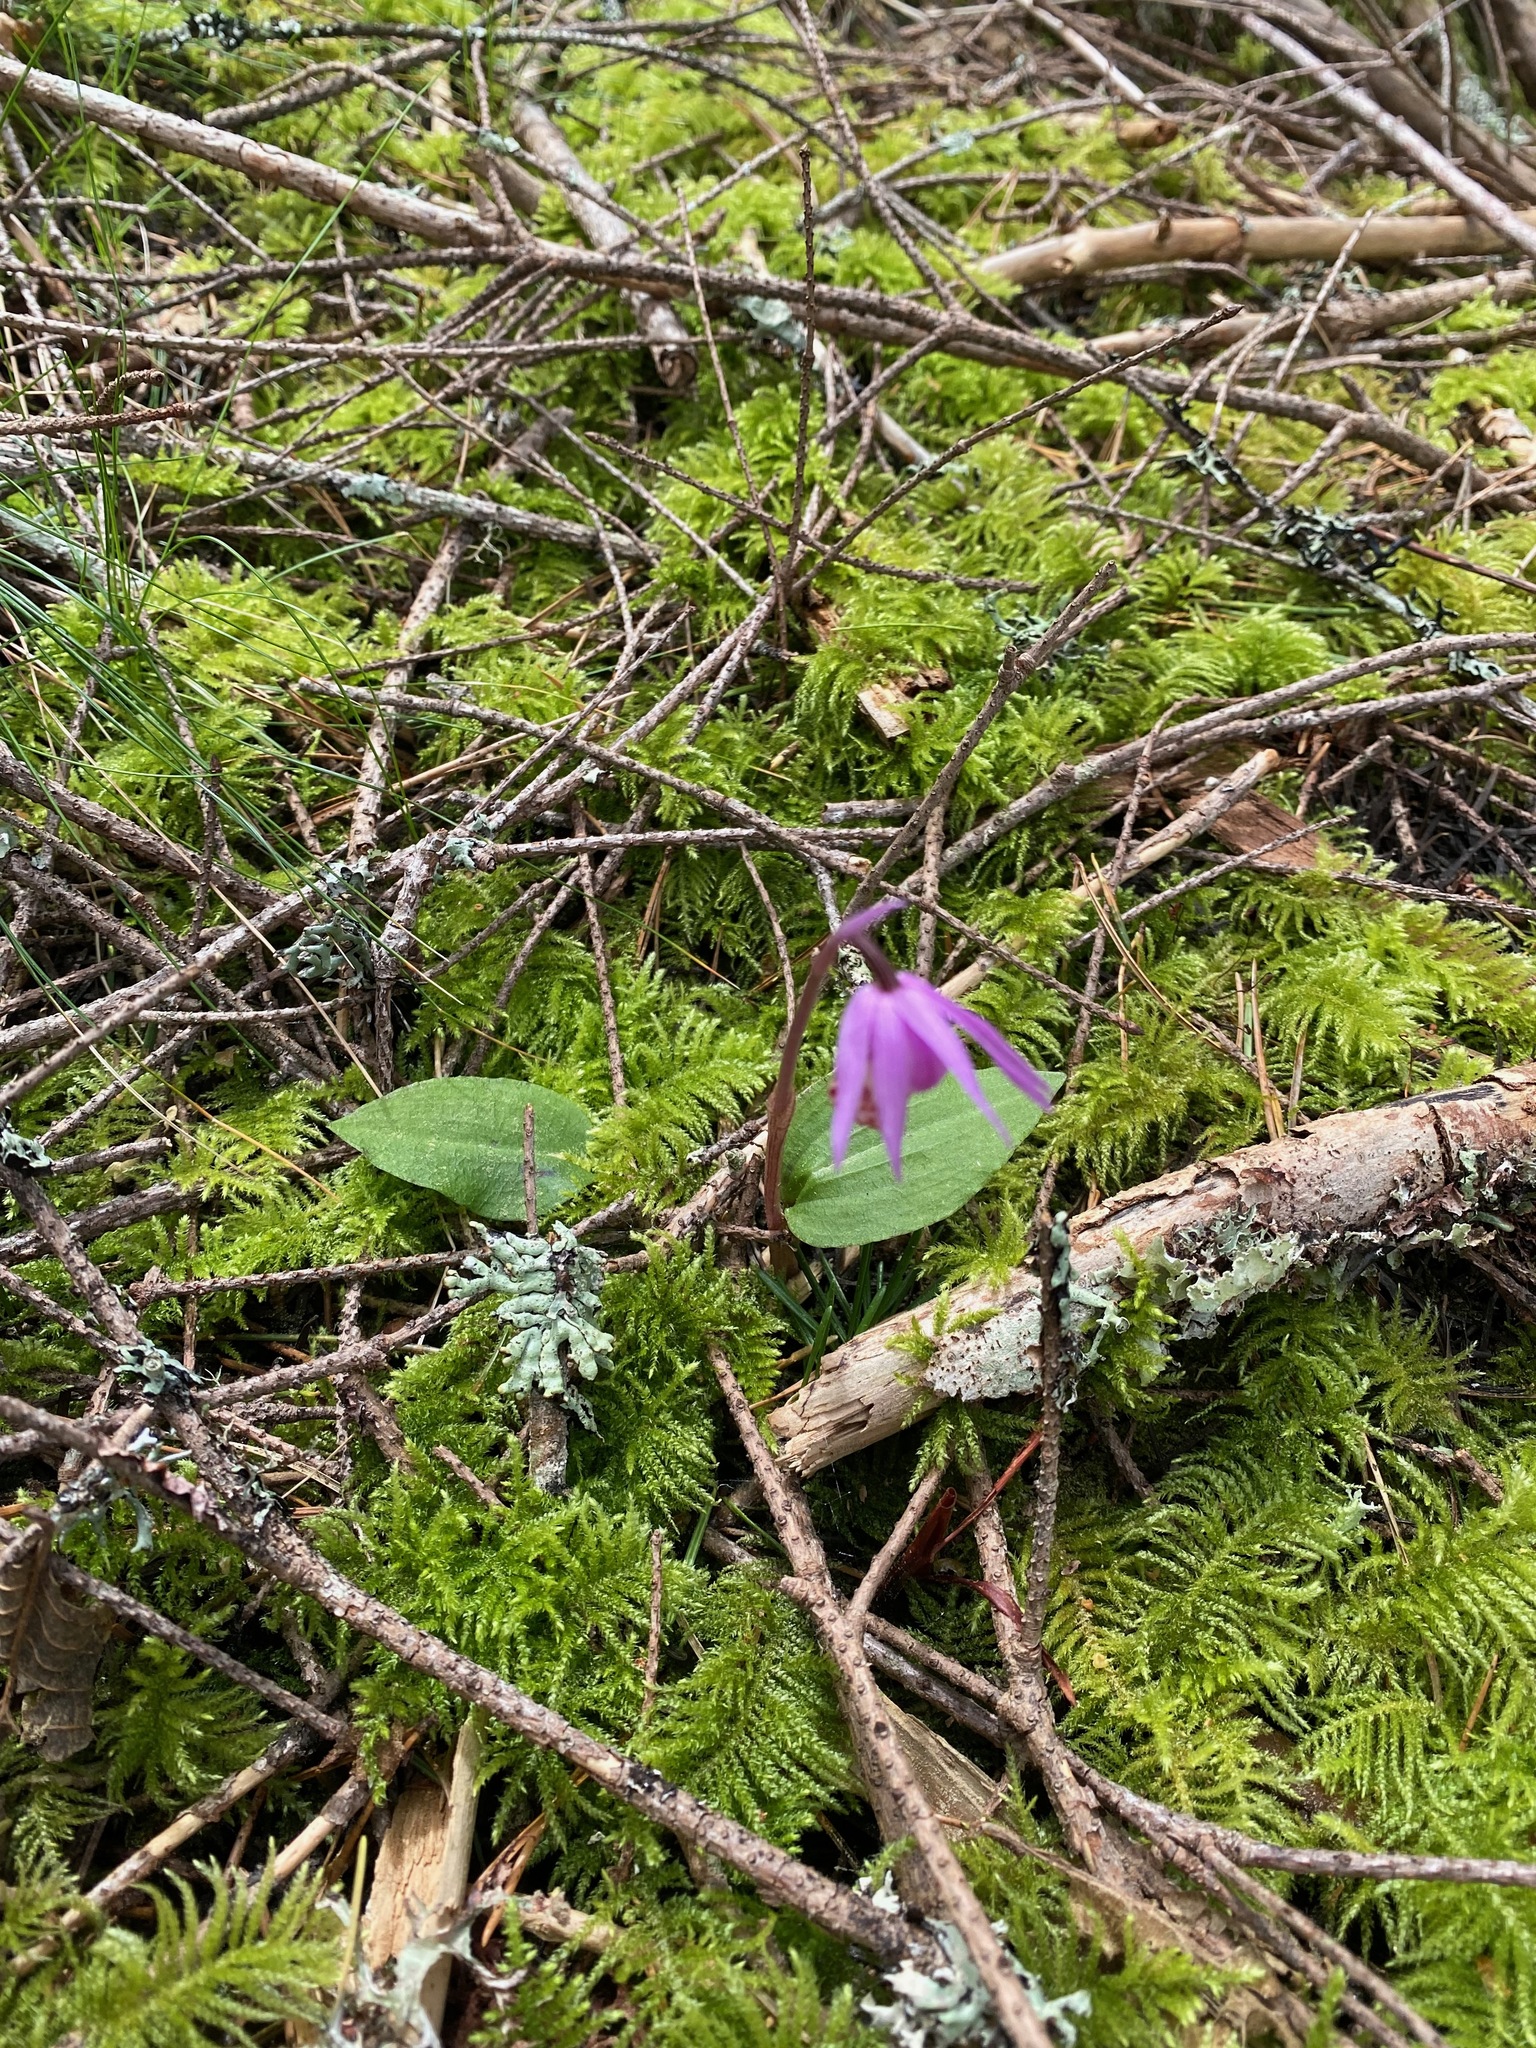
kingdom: Plantae
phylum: Tracheophyta
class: Liliopsida
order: Asparagales
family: Orchidaceae
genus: Calypso
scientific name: Calypso bulbosa
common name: Calypso
